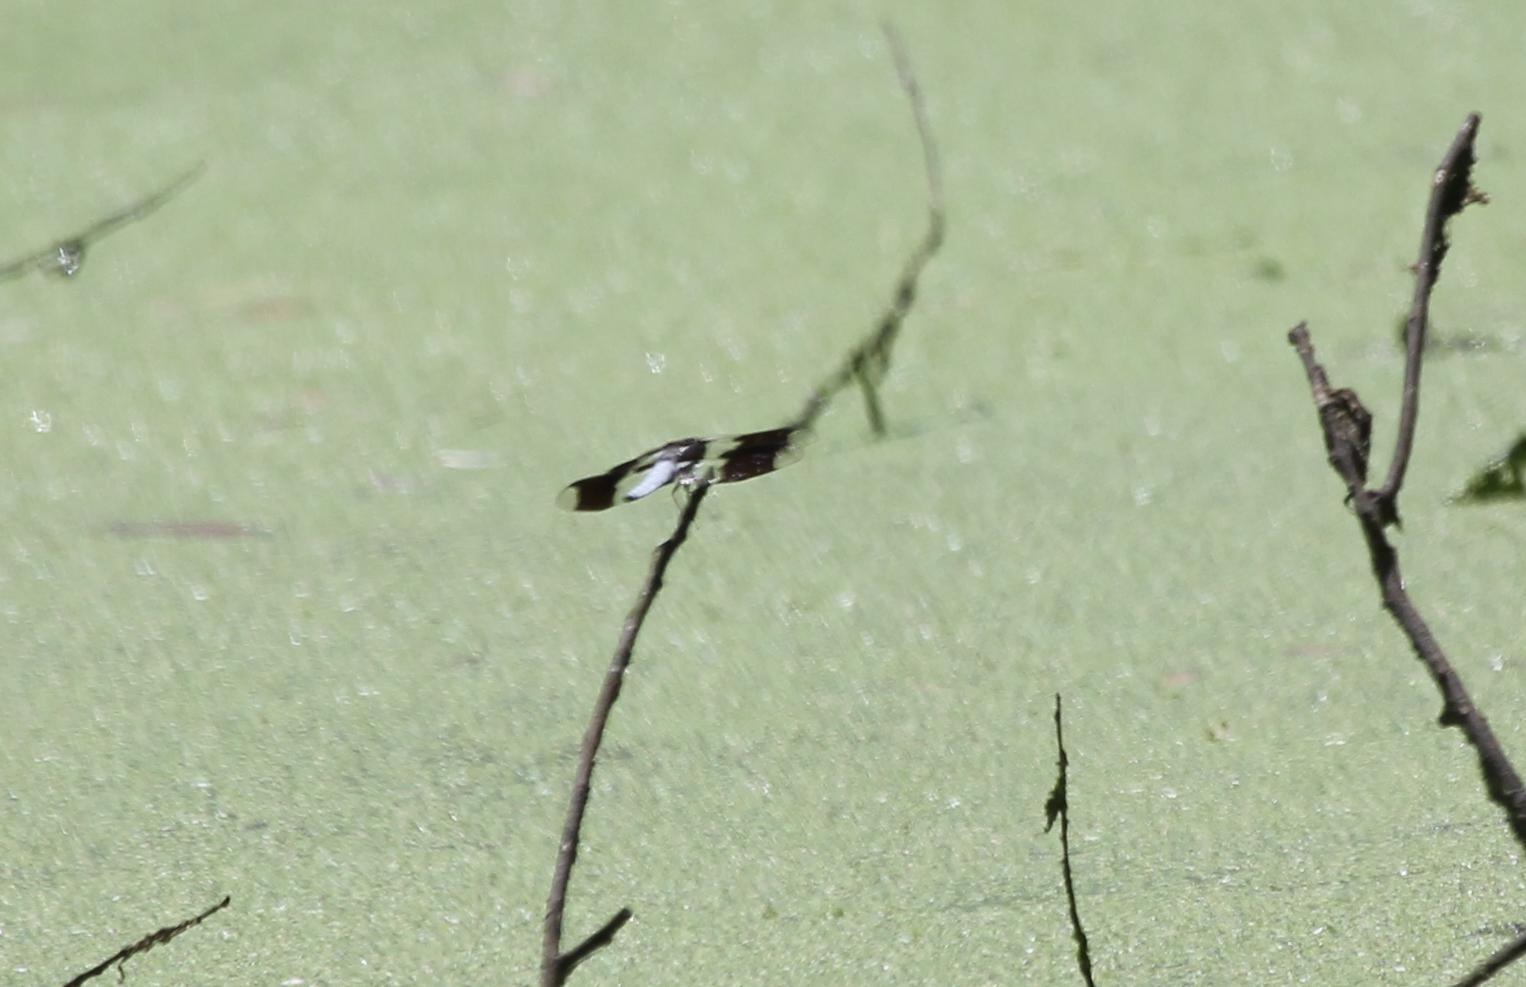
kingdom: Animalia
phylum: Arthropoda
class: Insecta
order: Odonata
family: Libellulidae
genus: Plathemis
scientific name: Plathemis lydia
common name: Common whitetail
